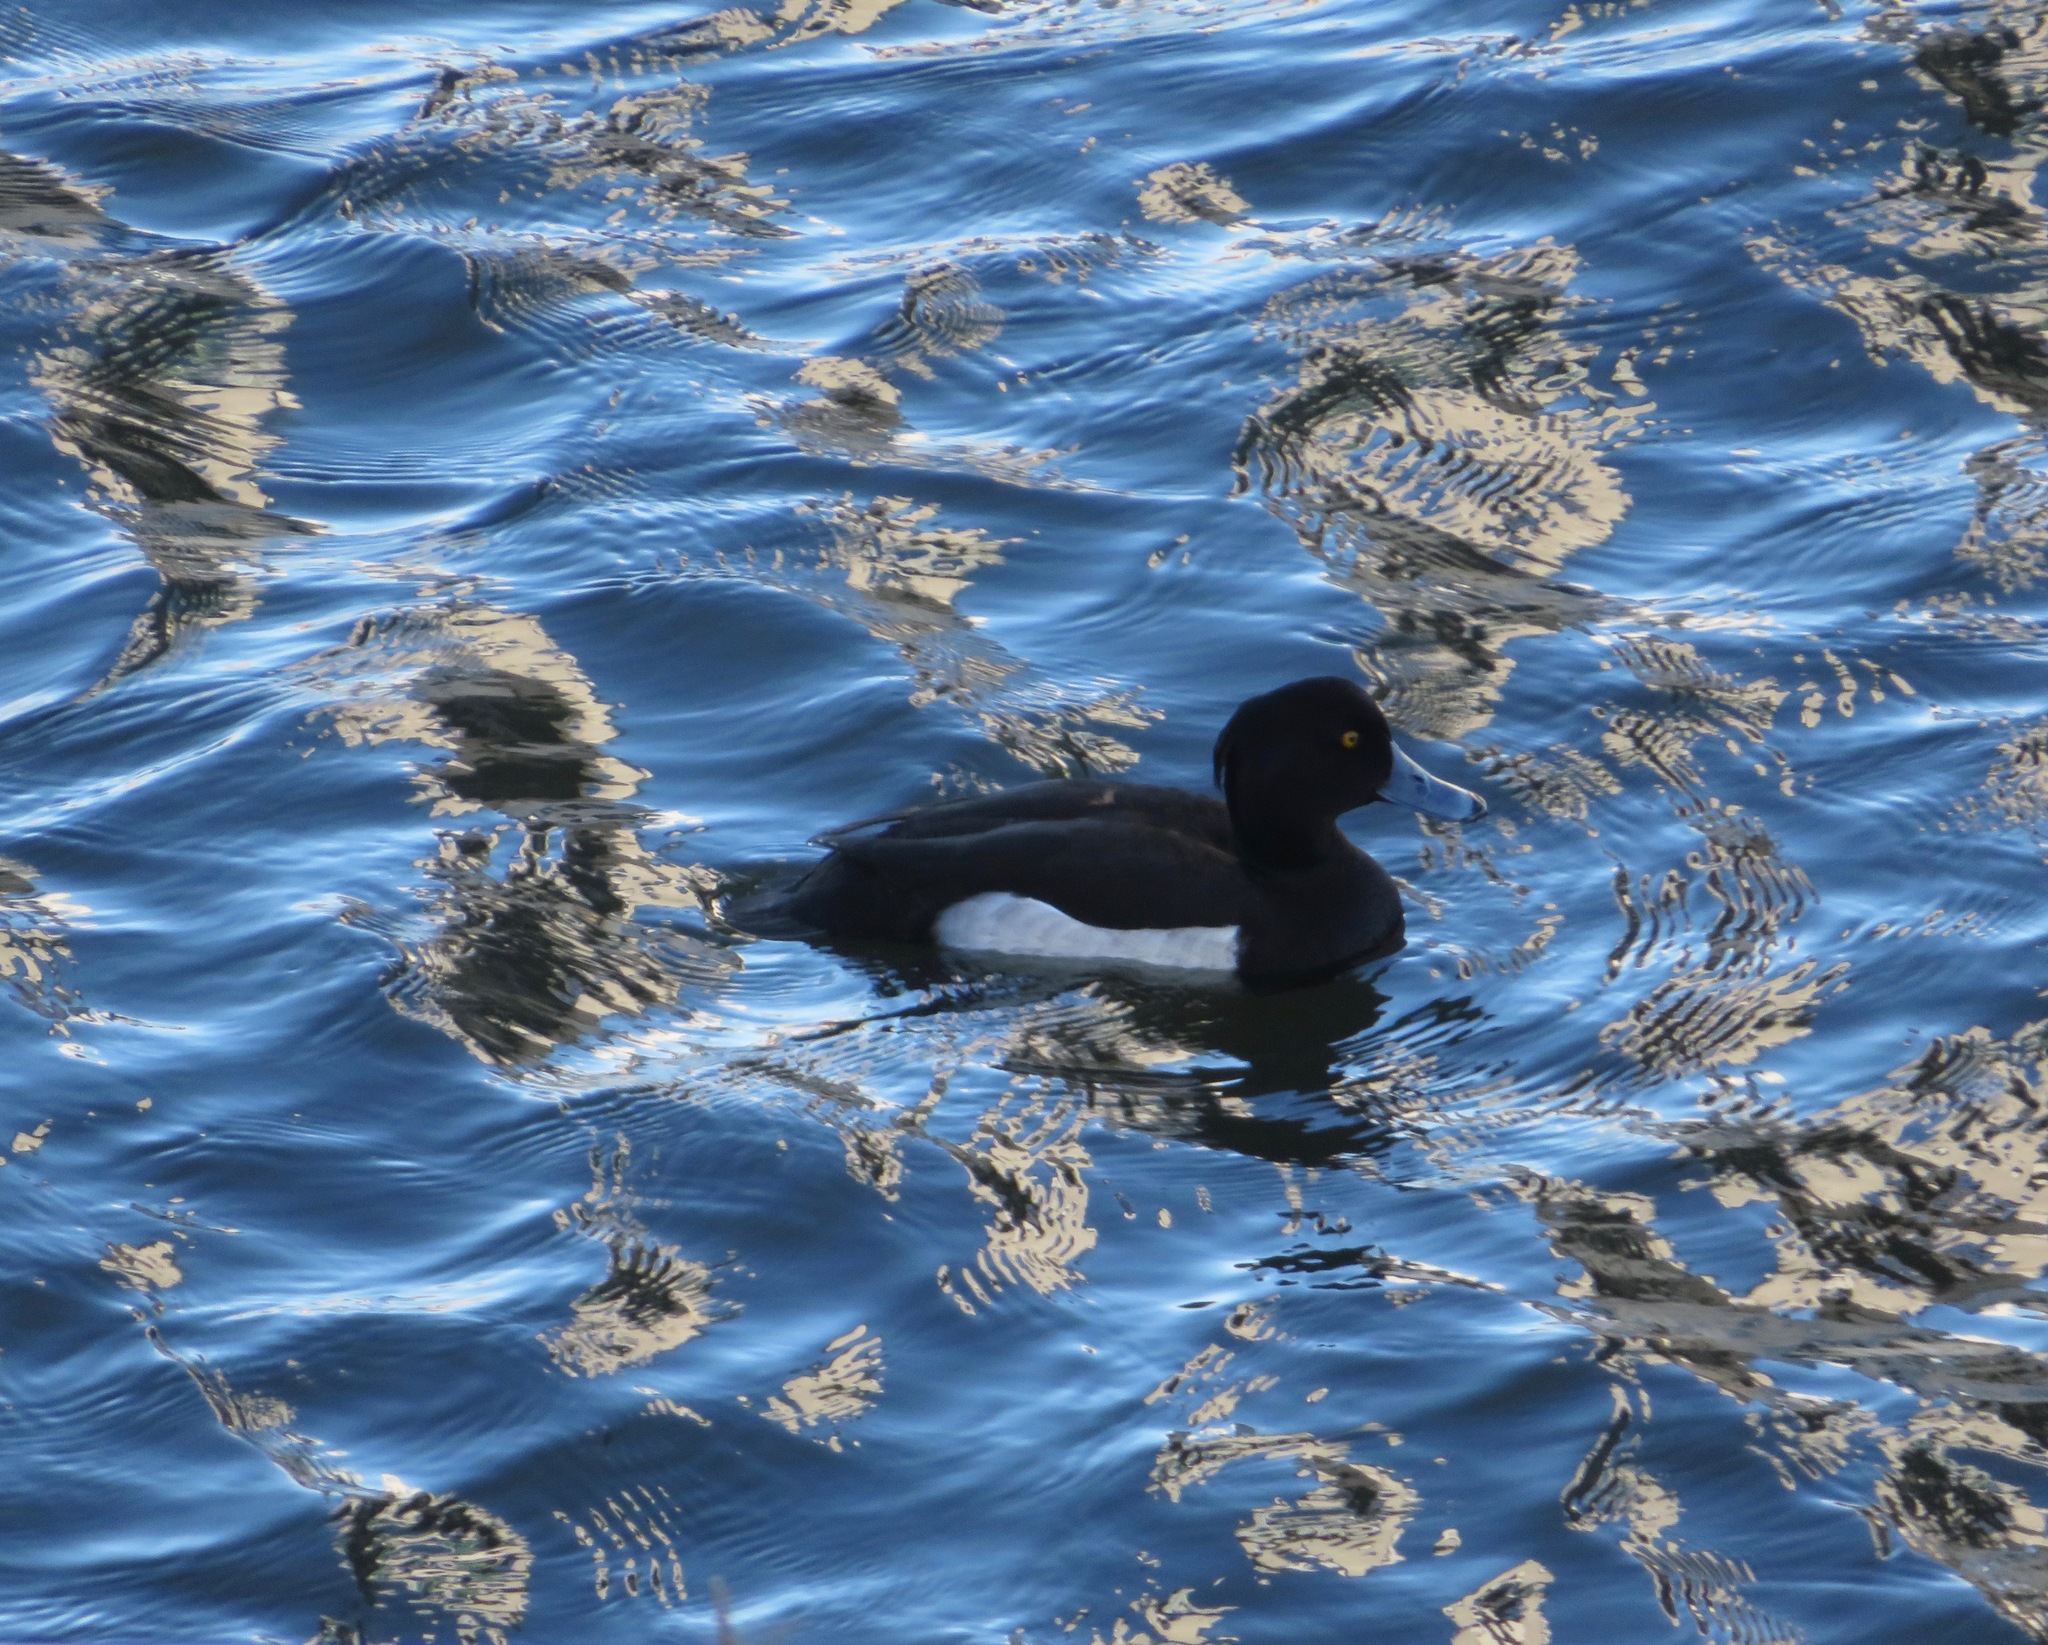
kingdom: Animalia
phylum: Chordata
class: Aves
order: Anseriformes
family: Anatidae
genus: Aythya
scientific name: Aythya fuligula
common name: Tufted duck
